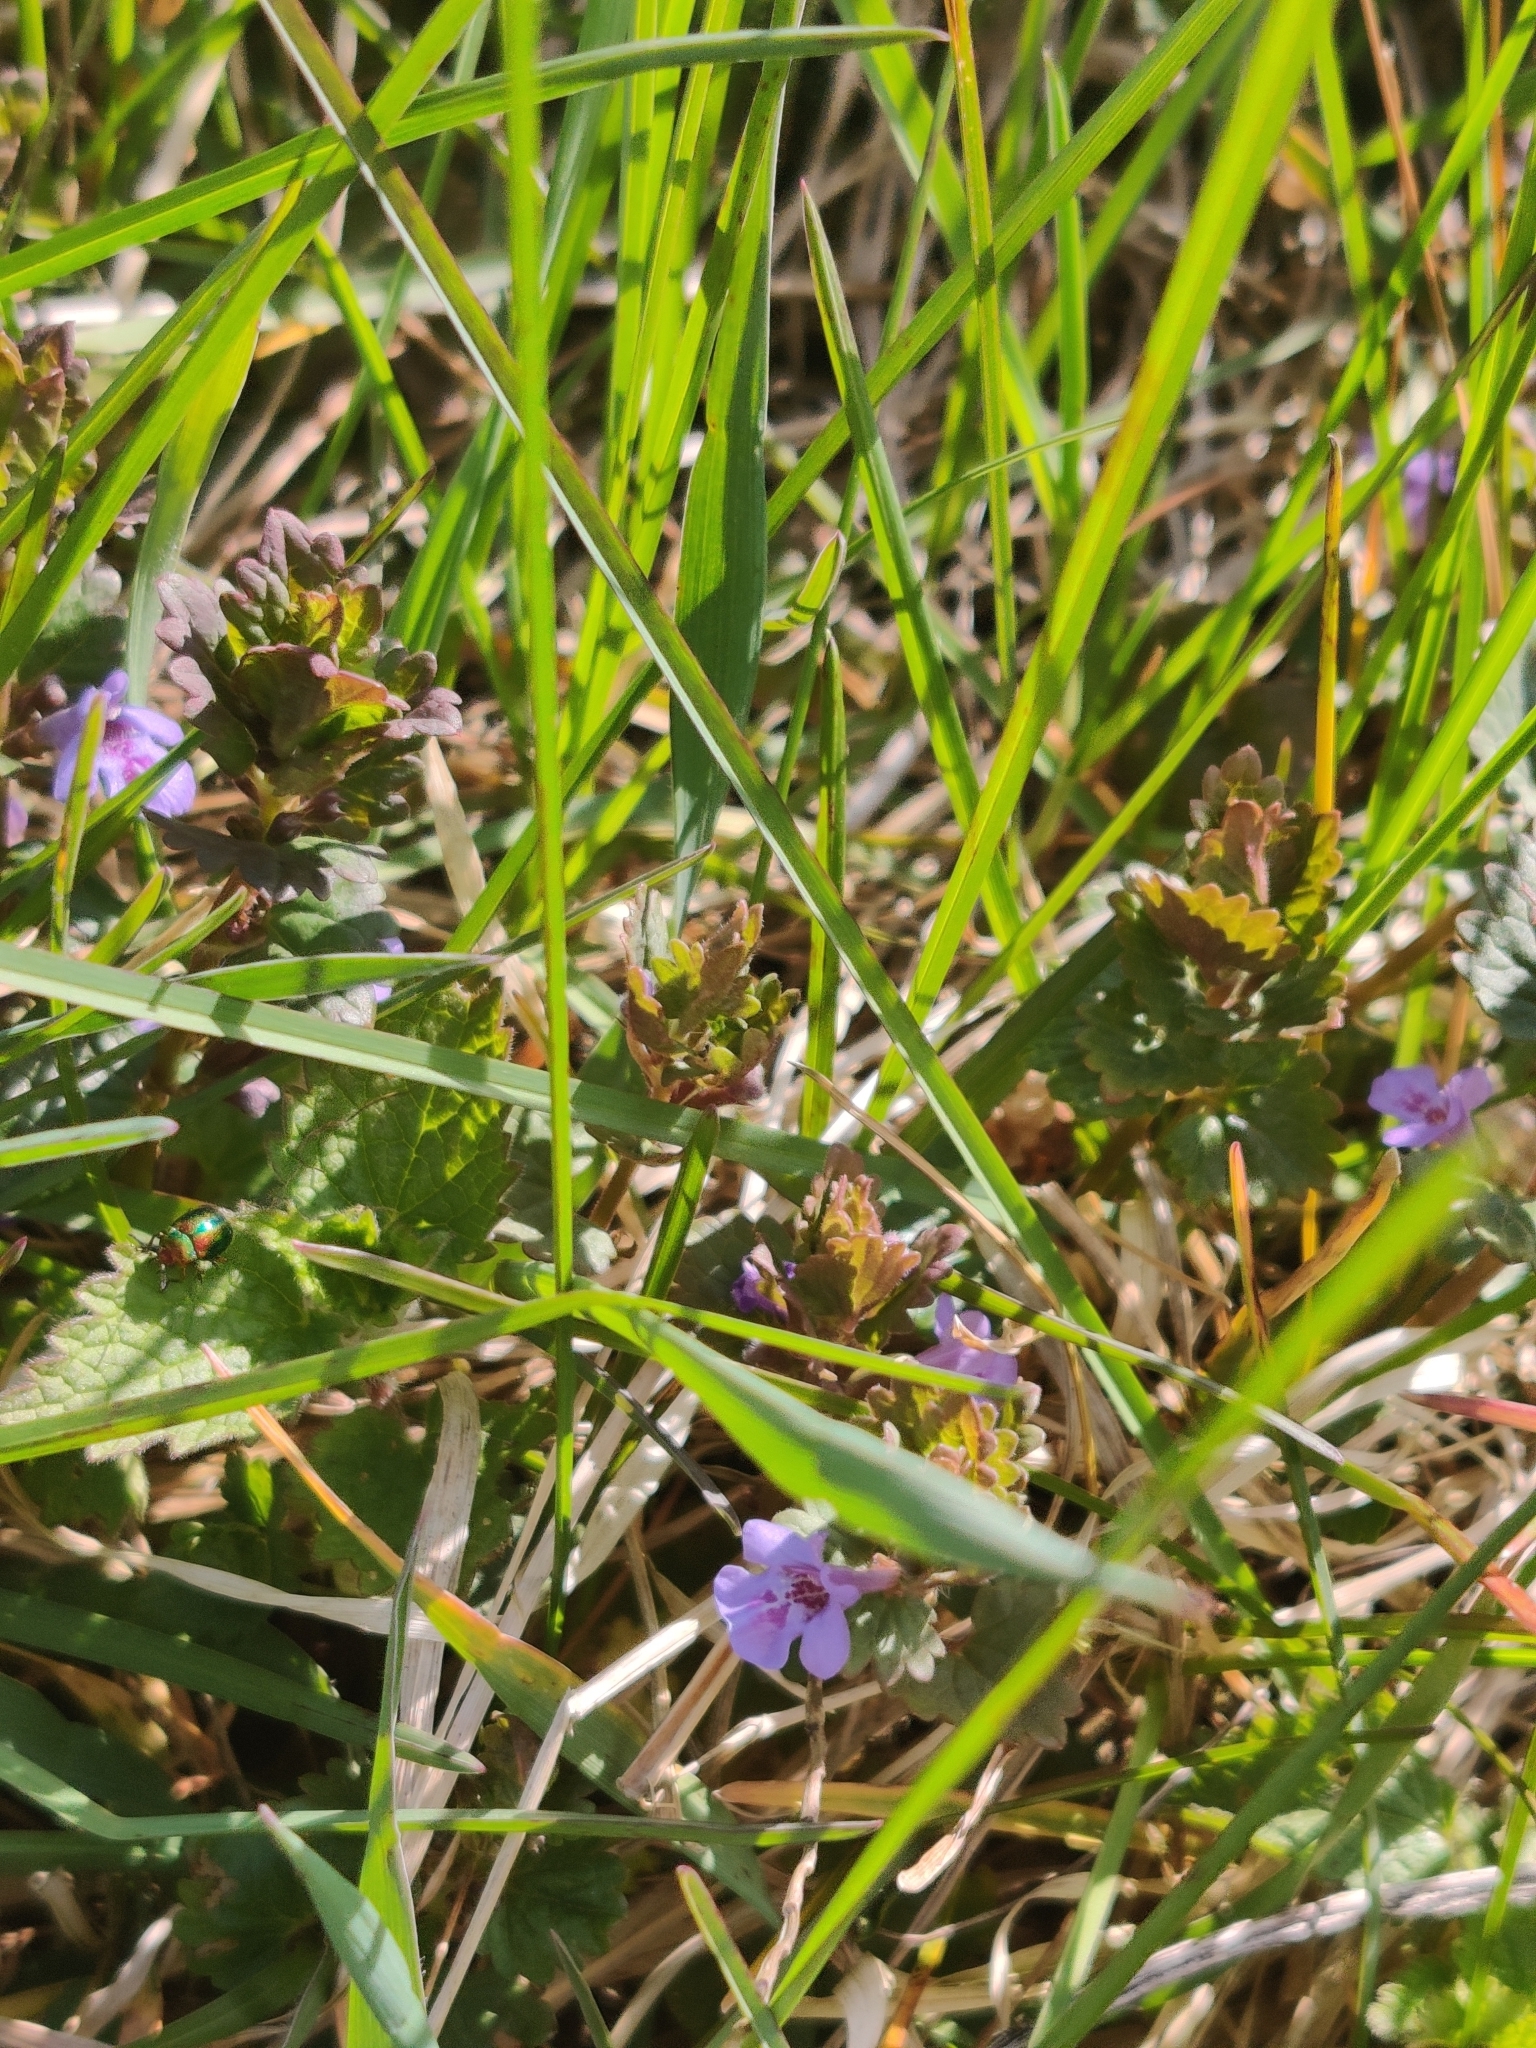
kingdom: Plantae
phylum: Tracheophyta
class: Magnoliopsida
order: Lamiales
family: Lamiaceae
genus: Glechoma
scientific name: Glechoma hederacea
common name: Ground ivy
